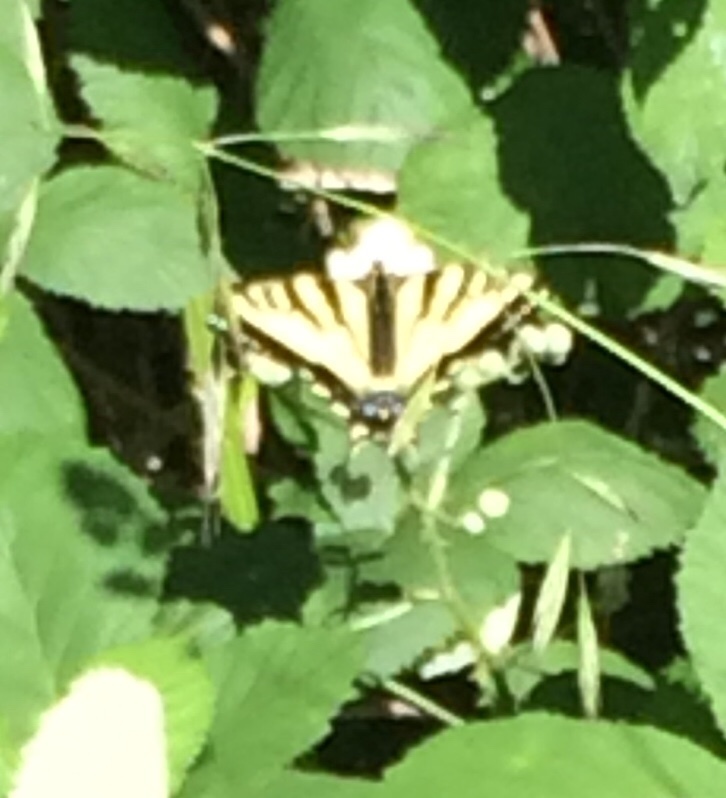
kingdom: Animalia
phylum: Arthropoda
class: Insecta
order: Lepidoptera
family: Papilionidae
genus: Papilio
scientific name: Papilio rutulus
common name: Western tiger swallowtail
